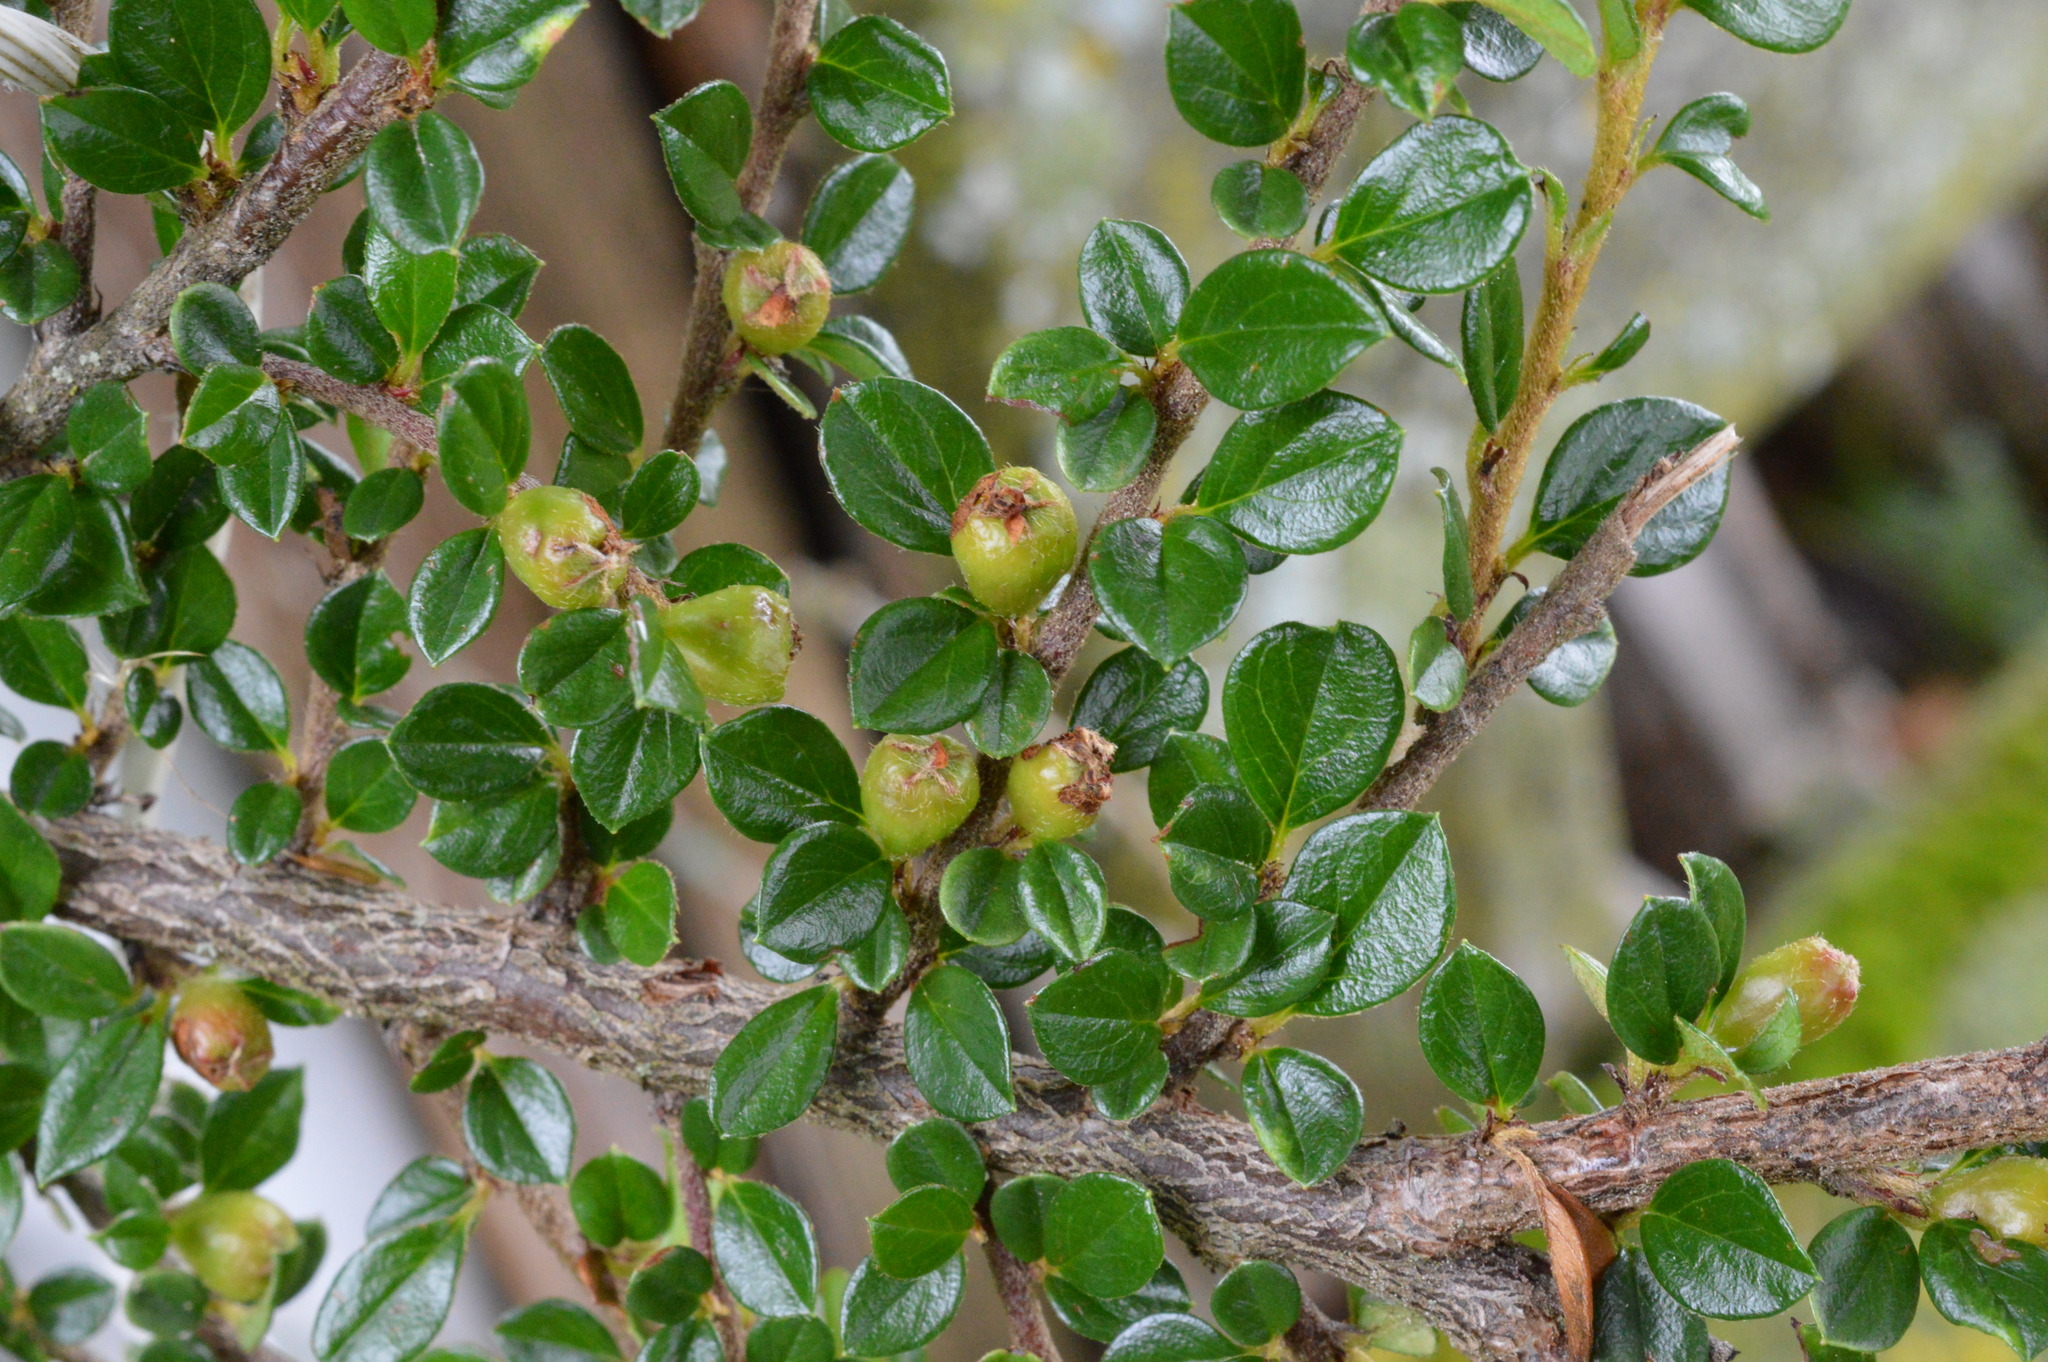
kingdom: Plantae
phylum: Tracheophyta
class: Magnoliopsida
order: Rosales
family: Rosaceae
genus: Cotoneaster
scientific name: Cotoneaster horizontalis
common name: Wall cotoneaster
